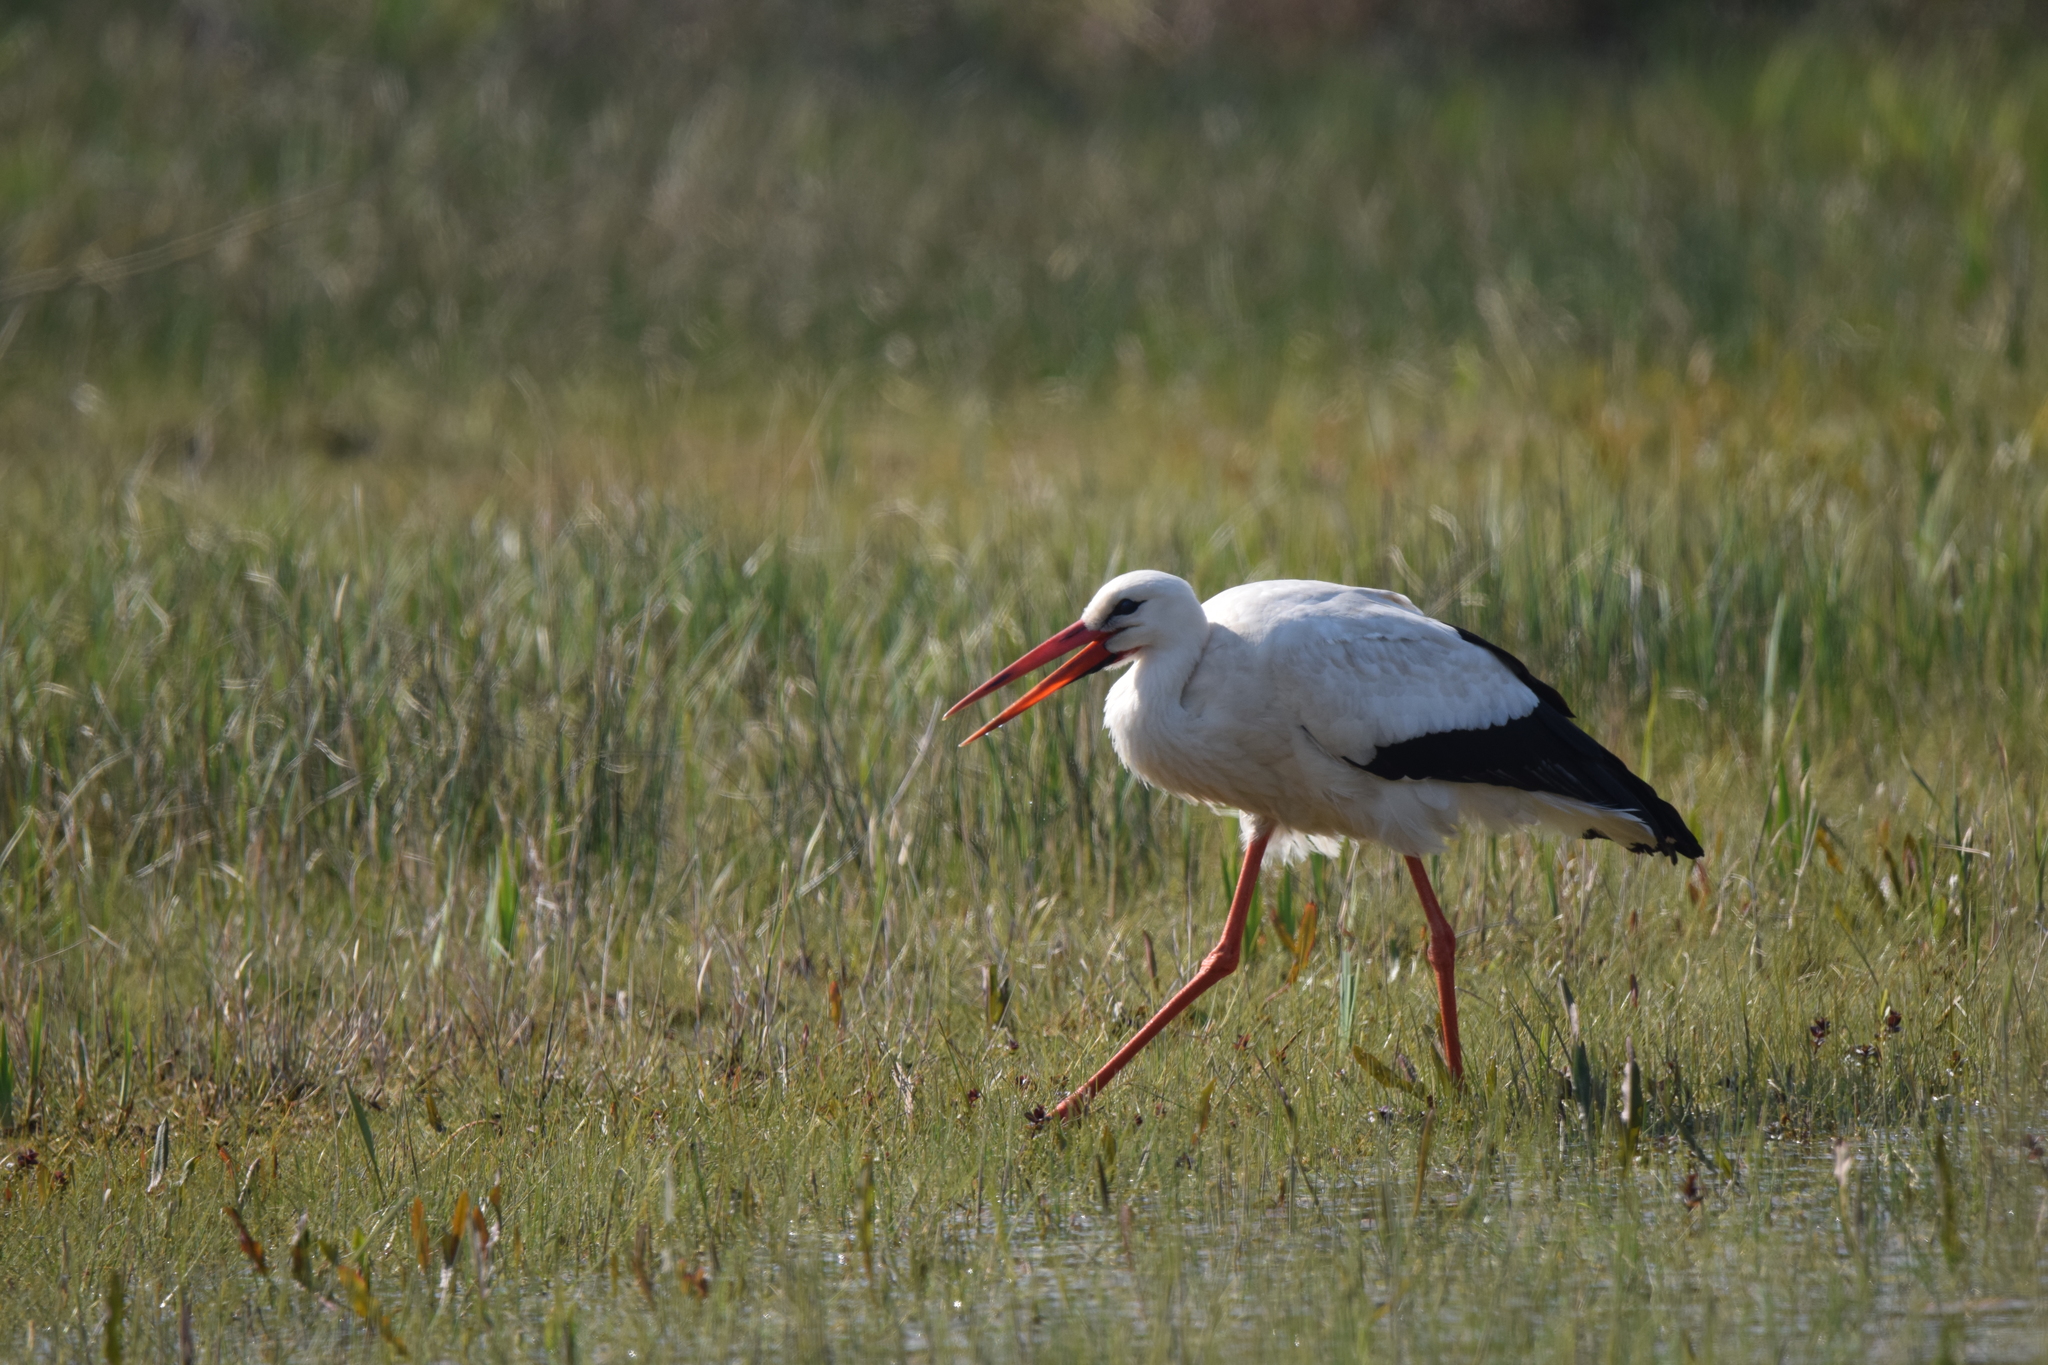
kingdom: Animalia
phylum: Chordata
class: Aves
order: Ciconiiformes
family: Ciconiidae
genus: Ciconia
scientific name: Ciconia ciconia
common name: White stork
